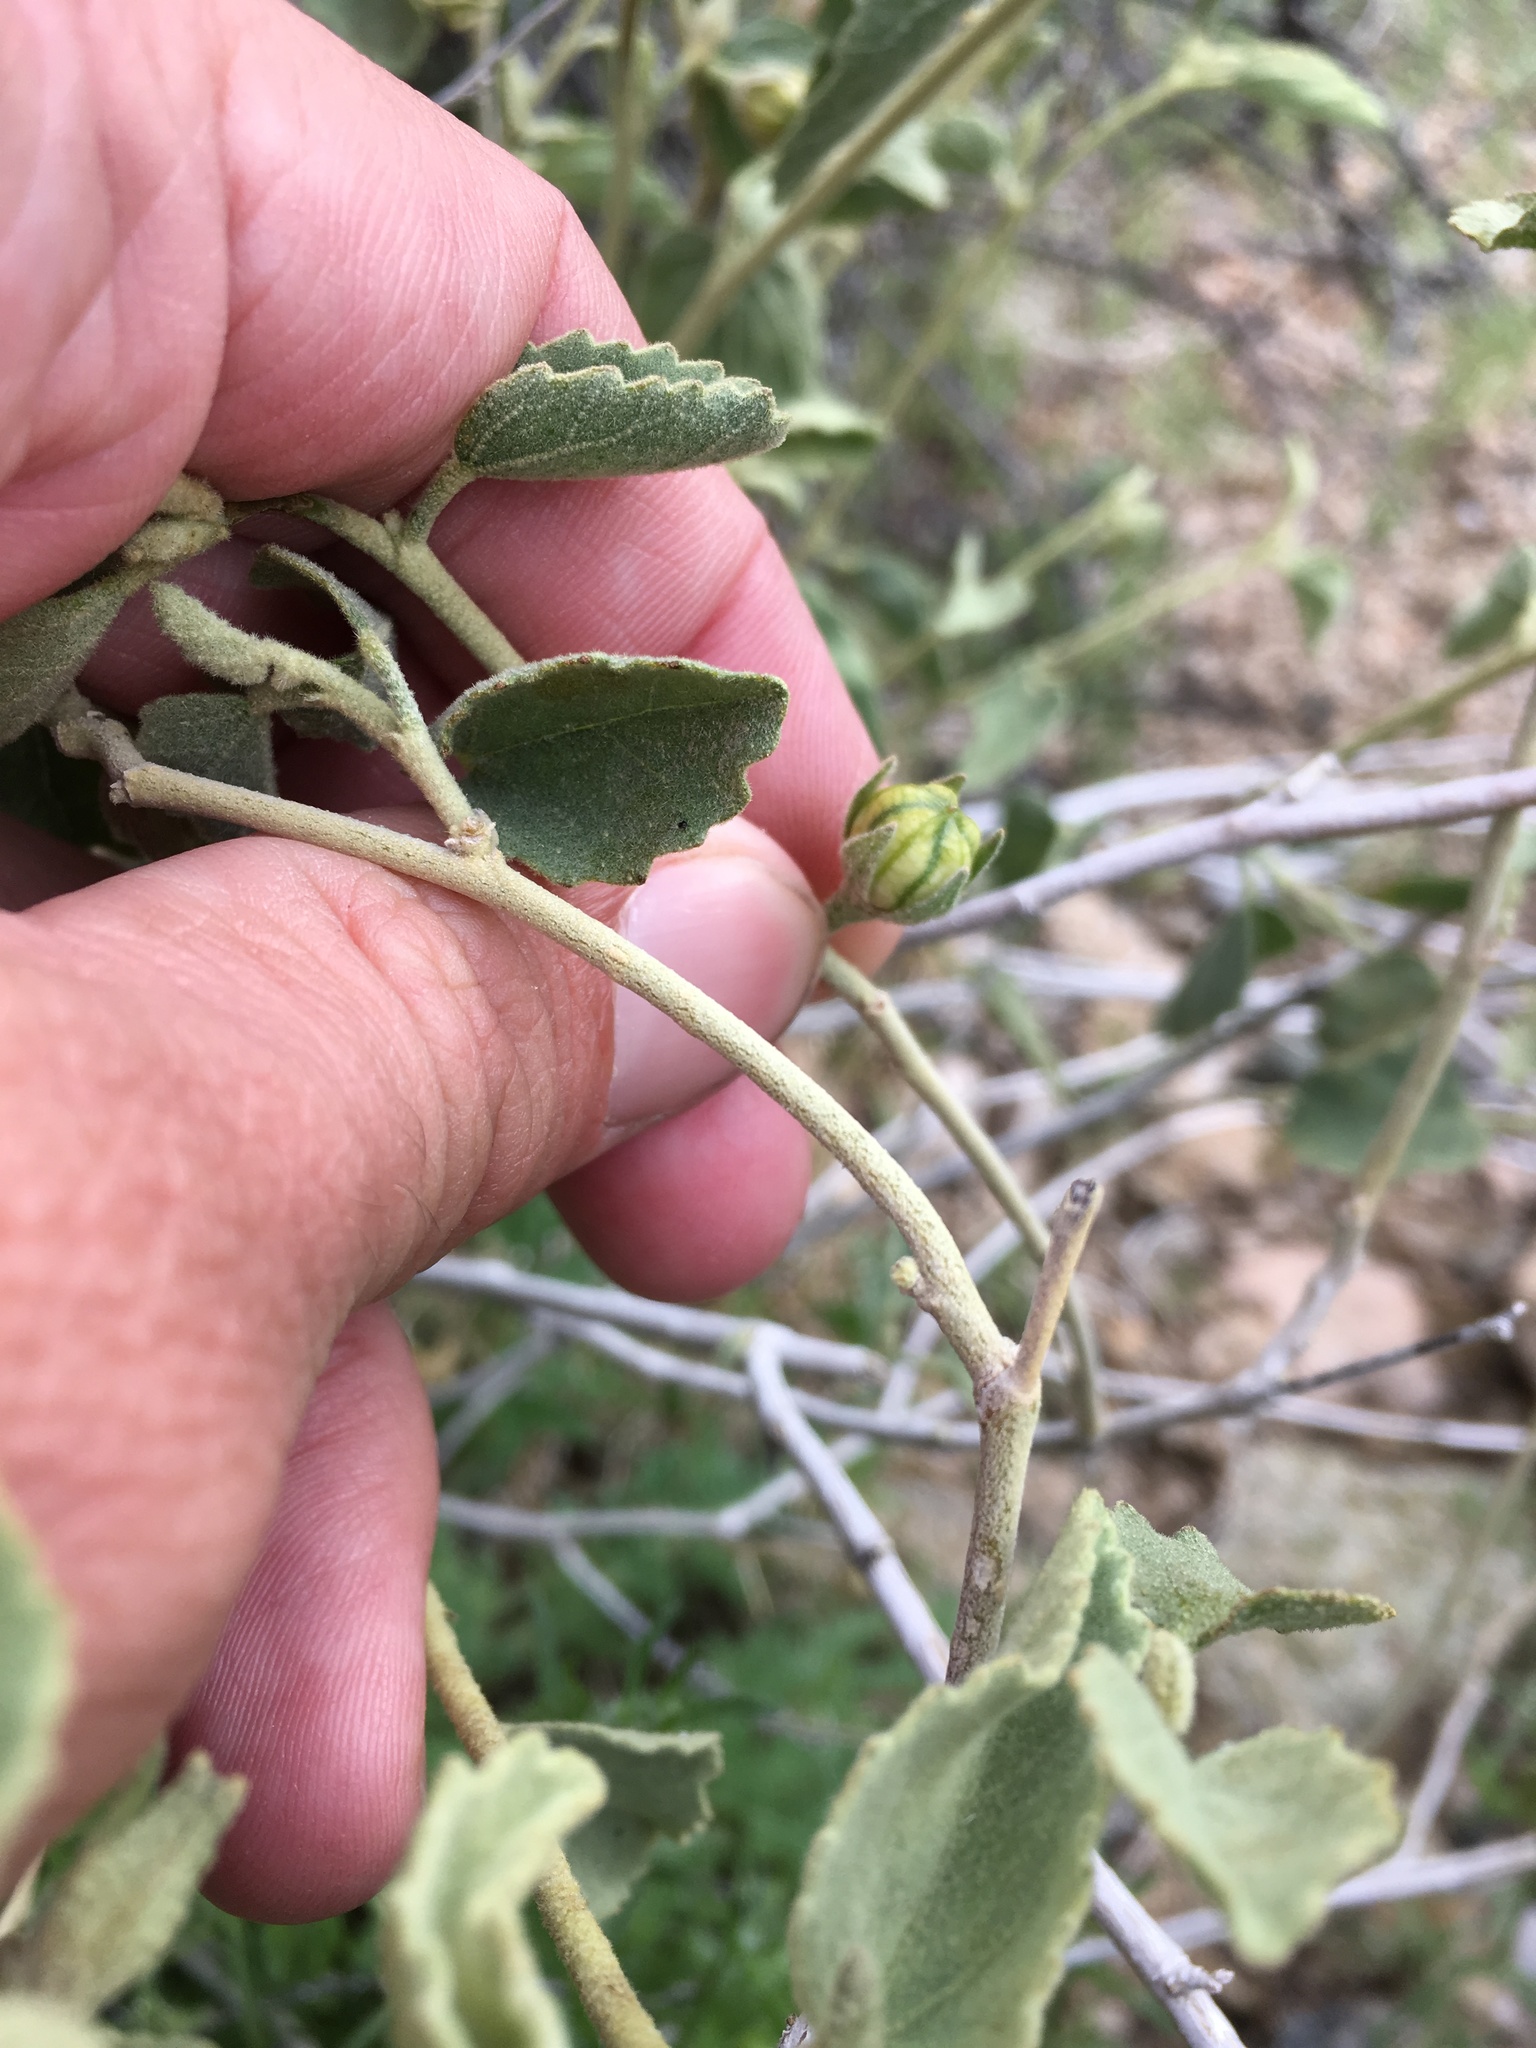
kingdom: Plantae
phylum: Tracheophyta
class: Magnoliopsida
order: Malvales
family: Malvaceae
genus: Hibiscus
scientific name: Hibiscus denudatus
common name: Paleface
